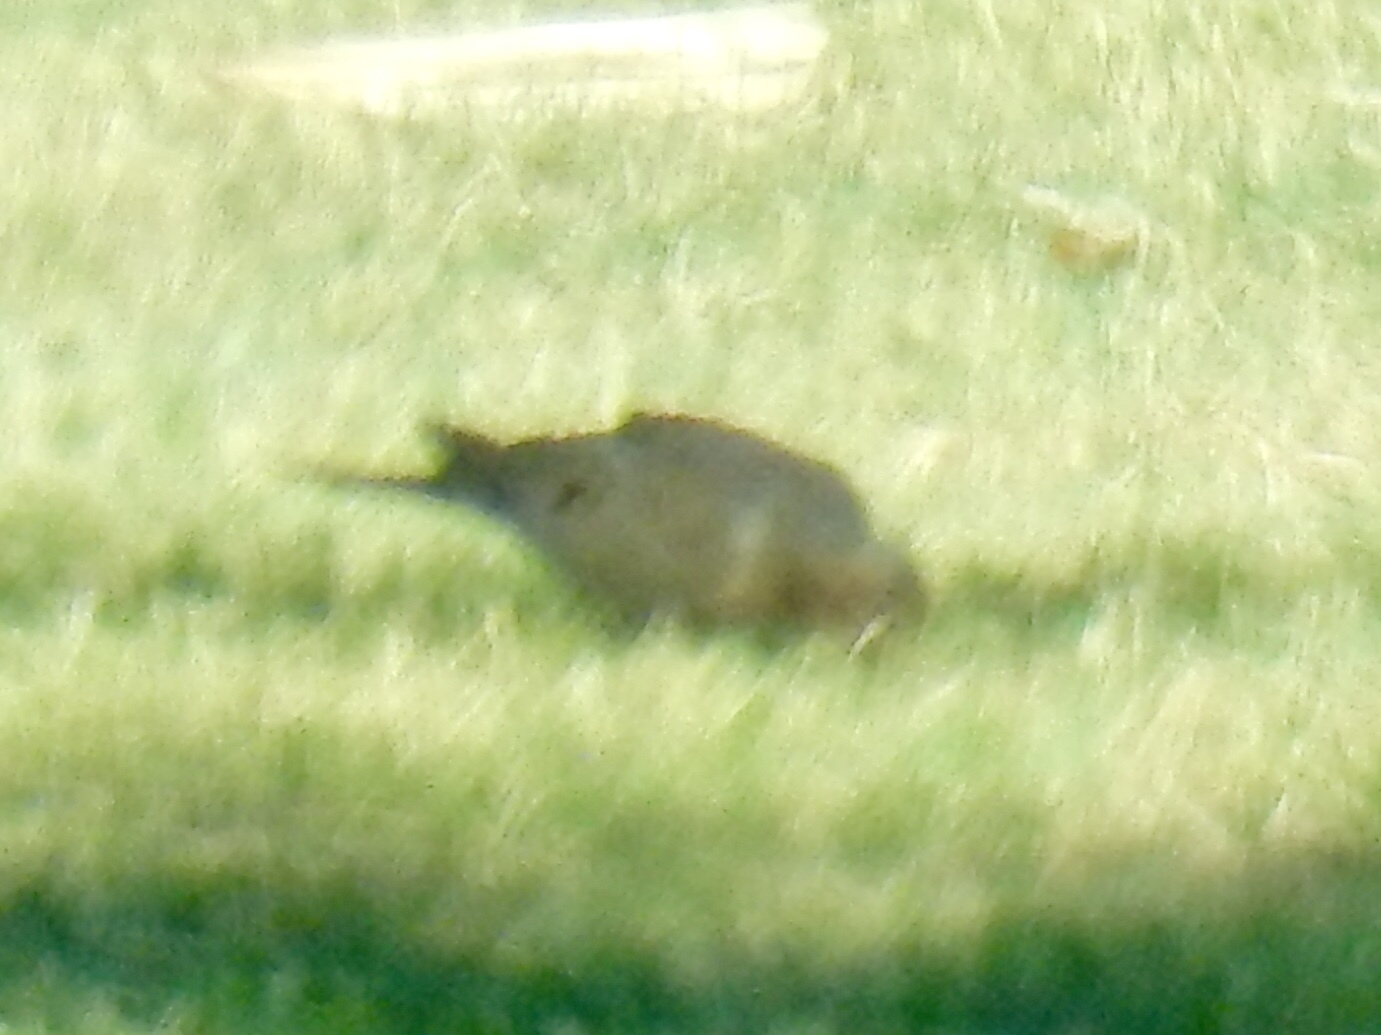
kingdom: Animalia
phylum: Chordata
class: Aves
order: Columbiformes
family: Columbidae
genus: Zenaida
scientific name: Zenaida macroura
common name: Mourning dove
